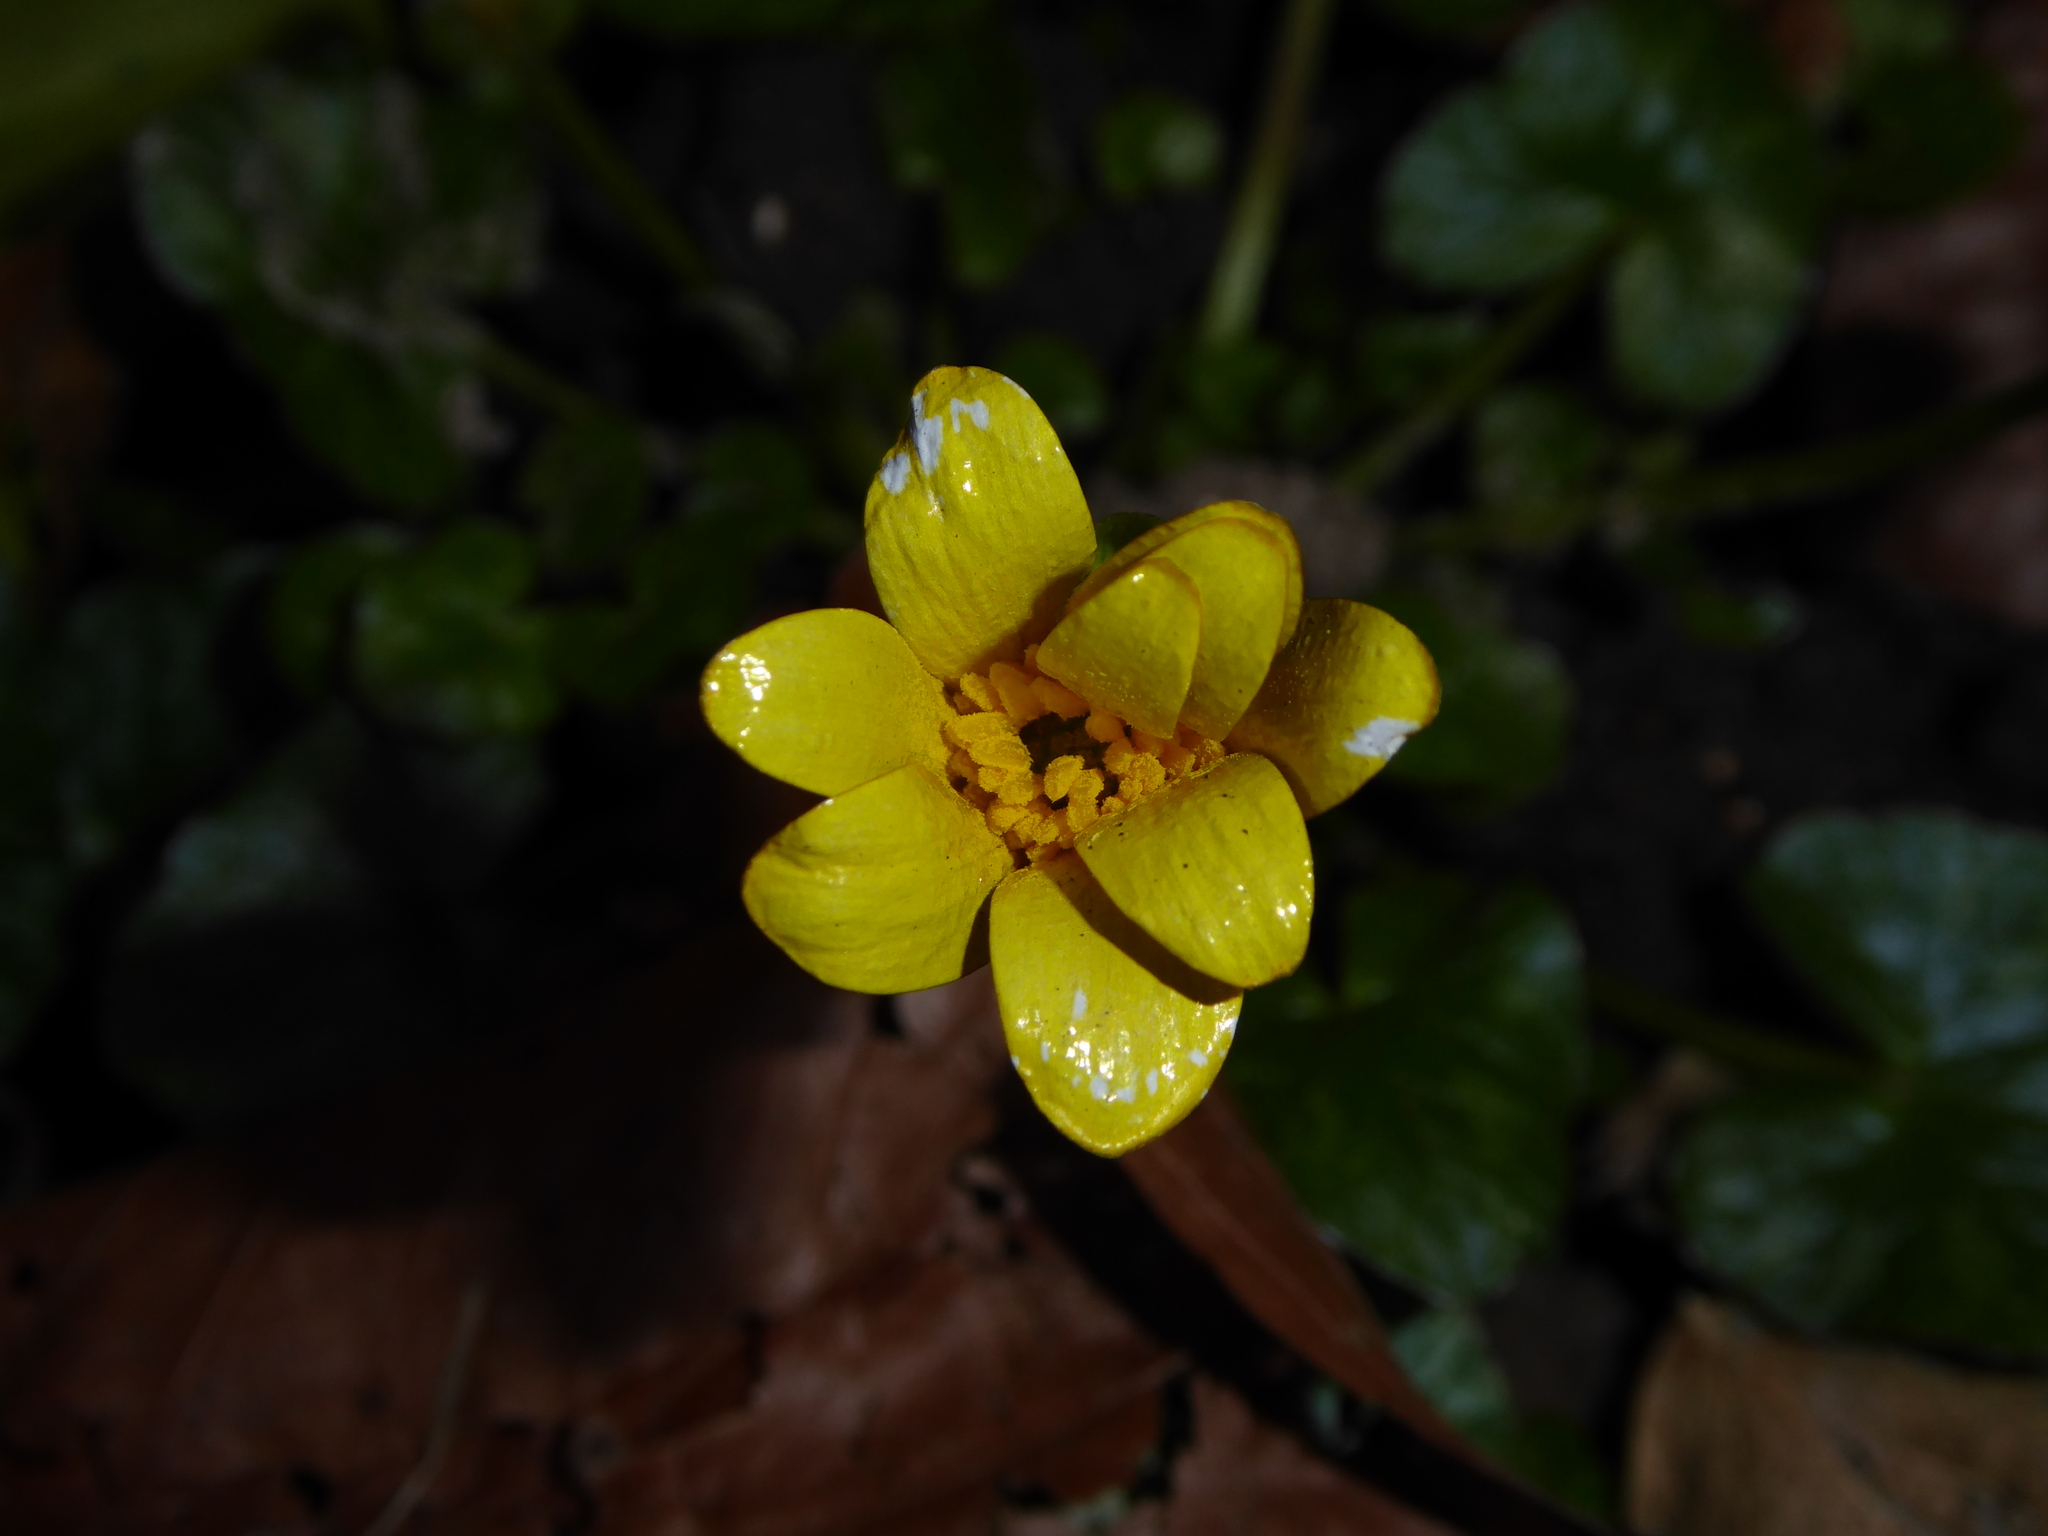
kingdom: Plantae
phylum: Tracheophyta
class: Magnoliopsida
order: Ranunculales
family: Ranunculaceae
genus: Ficaria
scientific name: Ficaria verna
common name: Lesser celandine
